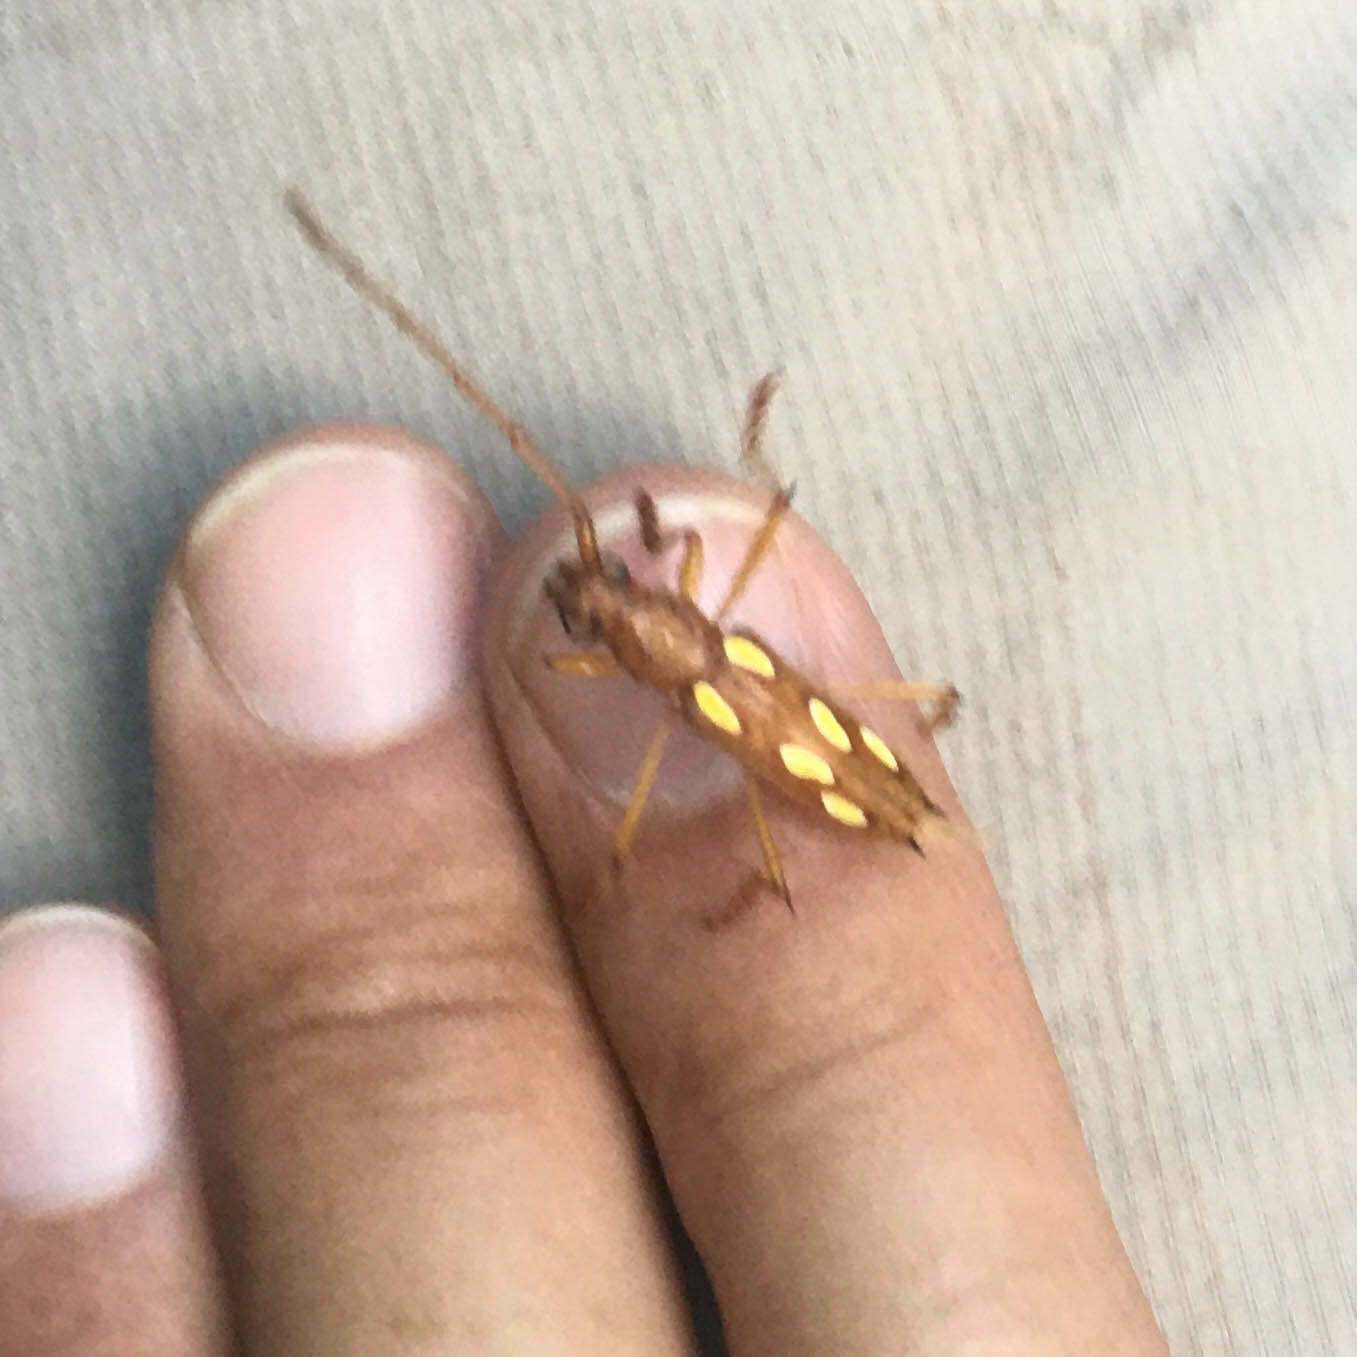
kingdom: Animalia
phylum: Arthropoda
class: Insecta
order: Coleoptera
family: Cerambycidae
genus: Eburodacrys
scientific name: Eburodacrys sexmaculata
